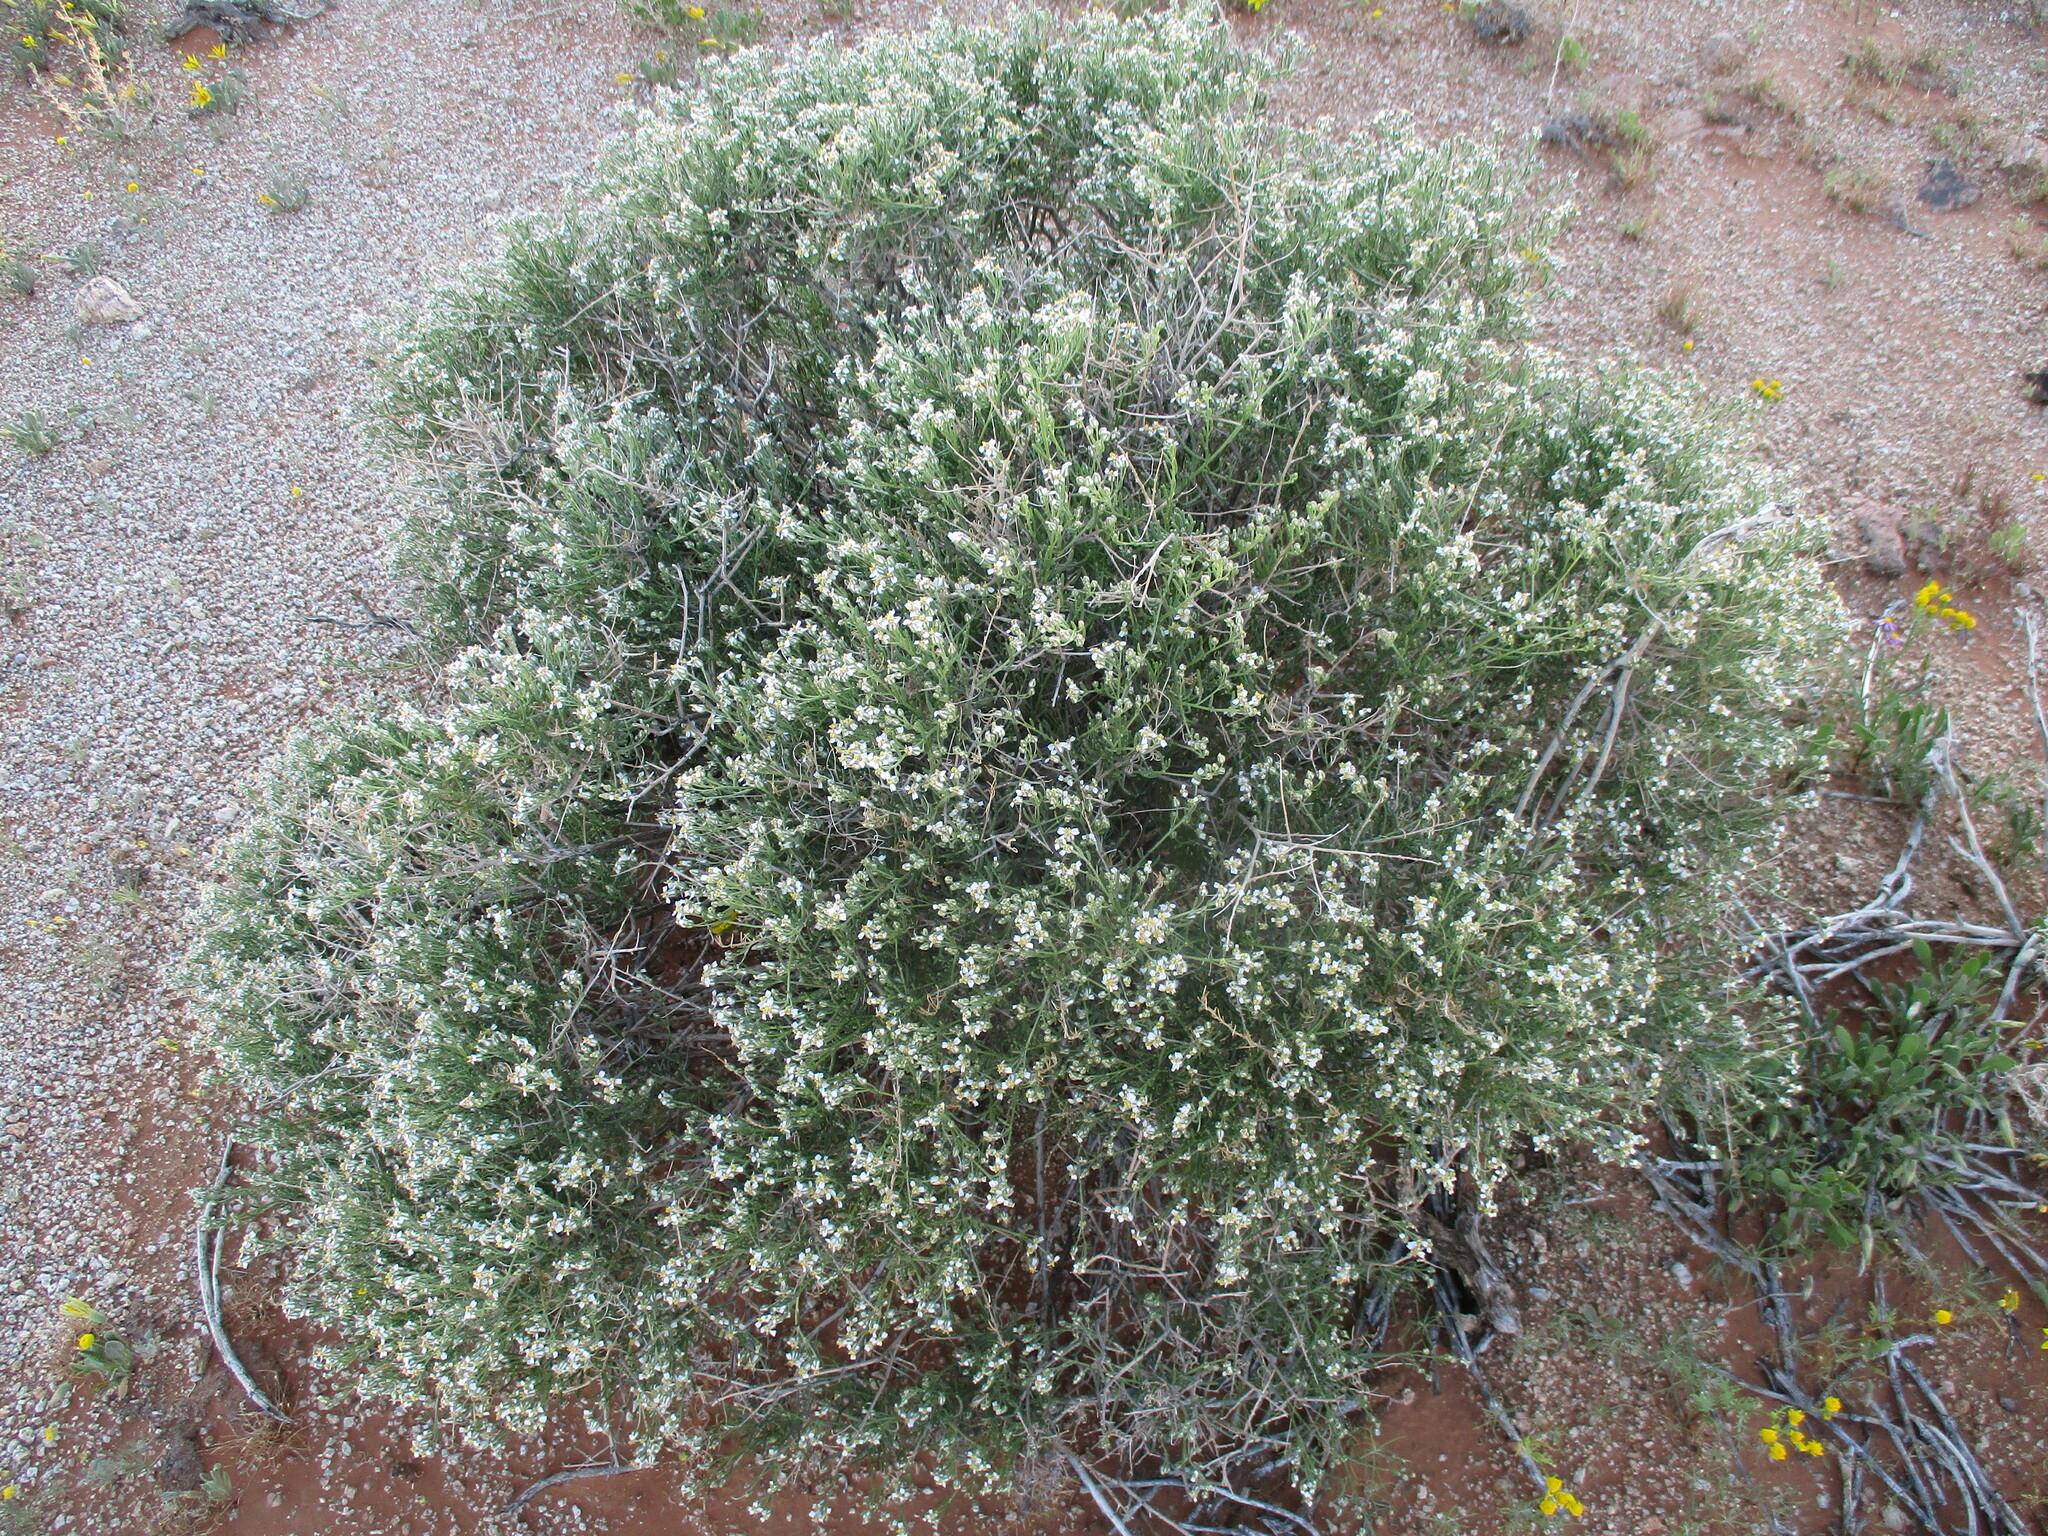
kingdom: Plantae
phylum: Tracheophyta
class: Magnoliopsida
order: Asterales
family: Asteraceae
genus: Eriocephalus
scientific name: Eriocephalus scariosus
